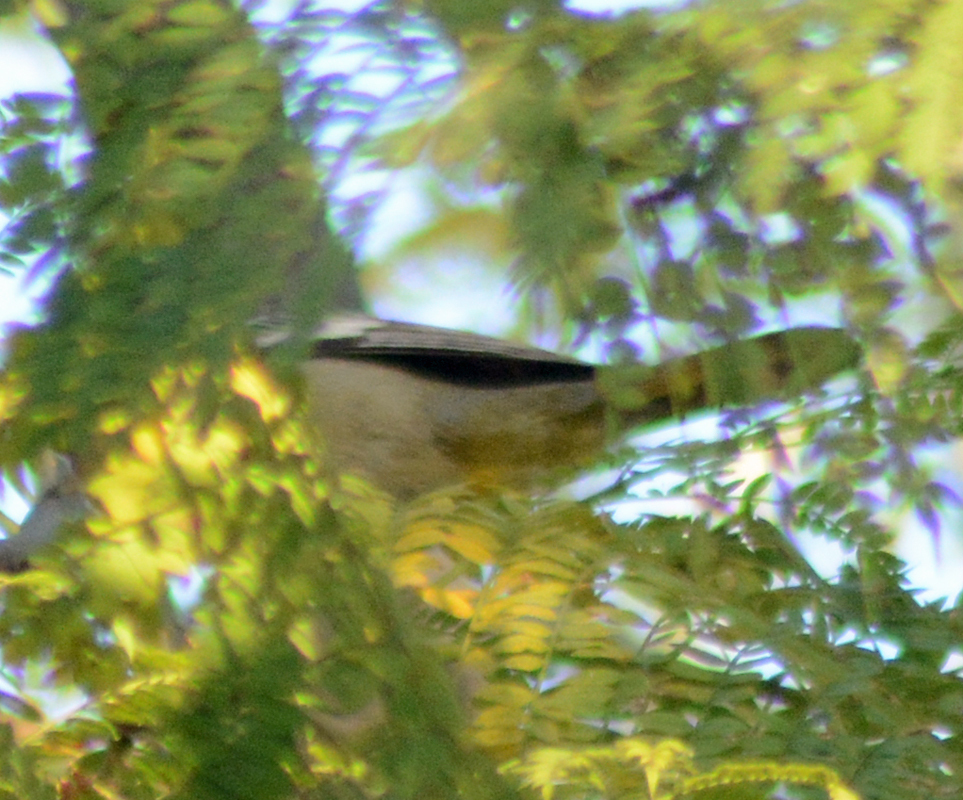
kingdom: Animalia
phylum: Chordata
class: Aves
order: Passeriformes
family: Laniidae
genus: Lanius
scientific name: Lanius ludovicianus
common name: Loggerhead shrike
